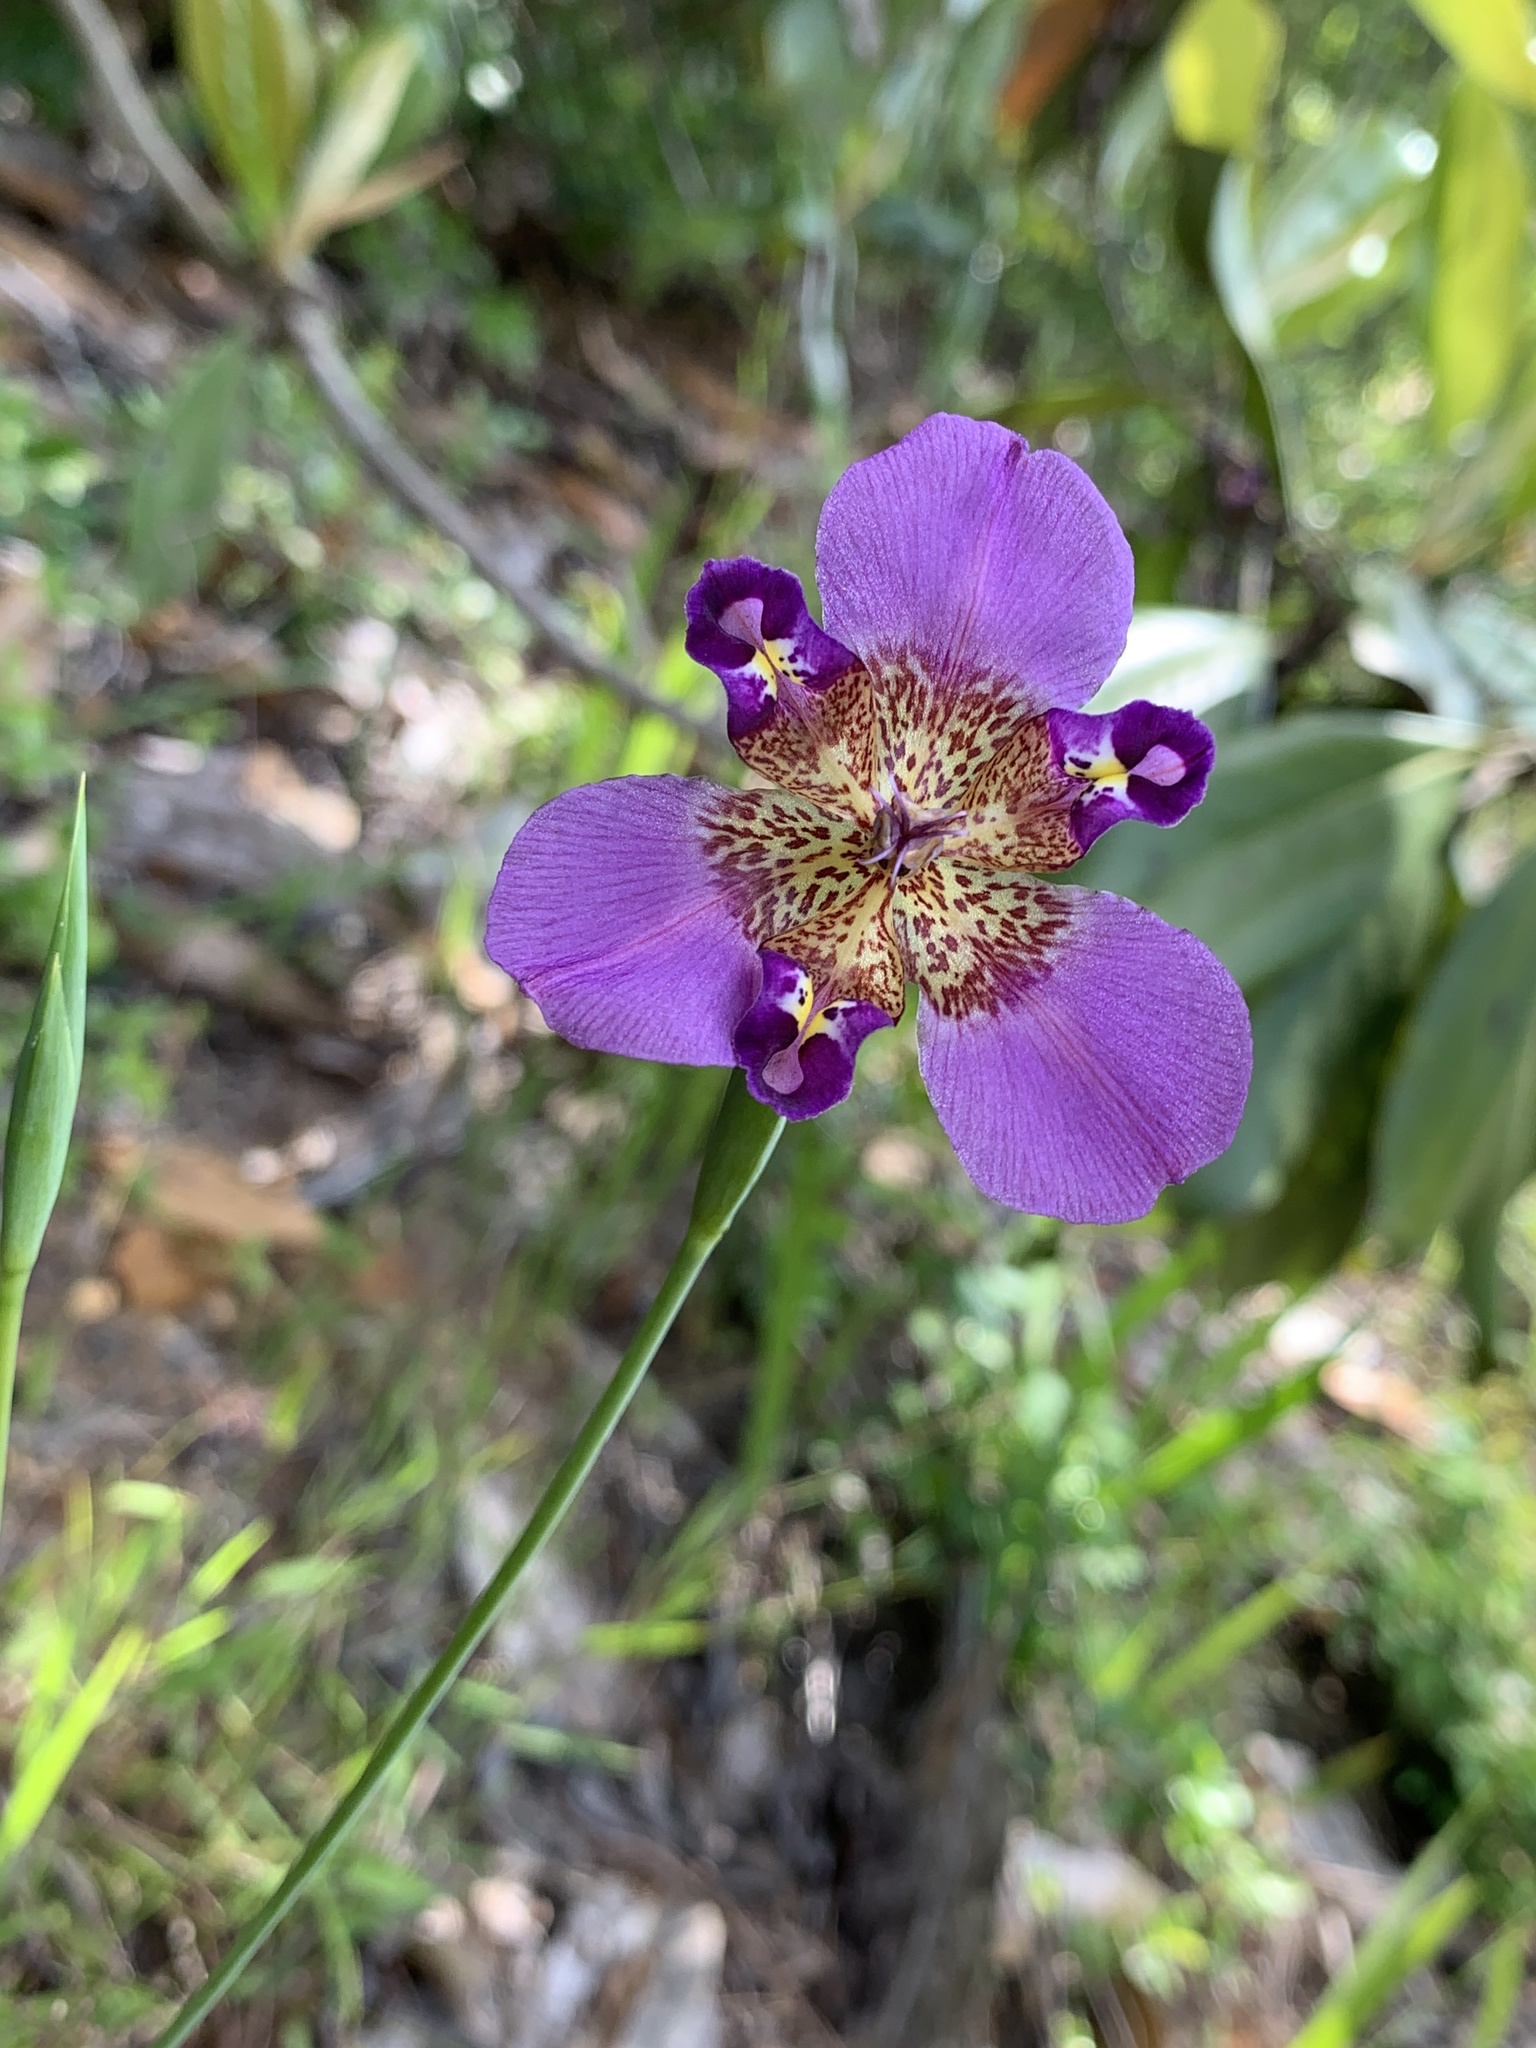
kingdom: Plantae
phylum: Tracheophyta
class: Liliopsida
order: Asparagales
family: Iridaceae
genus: Alophia
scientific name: Alophia drummondii
